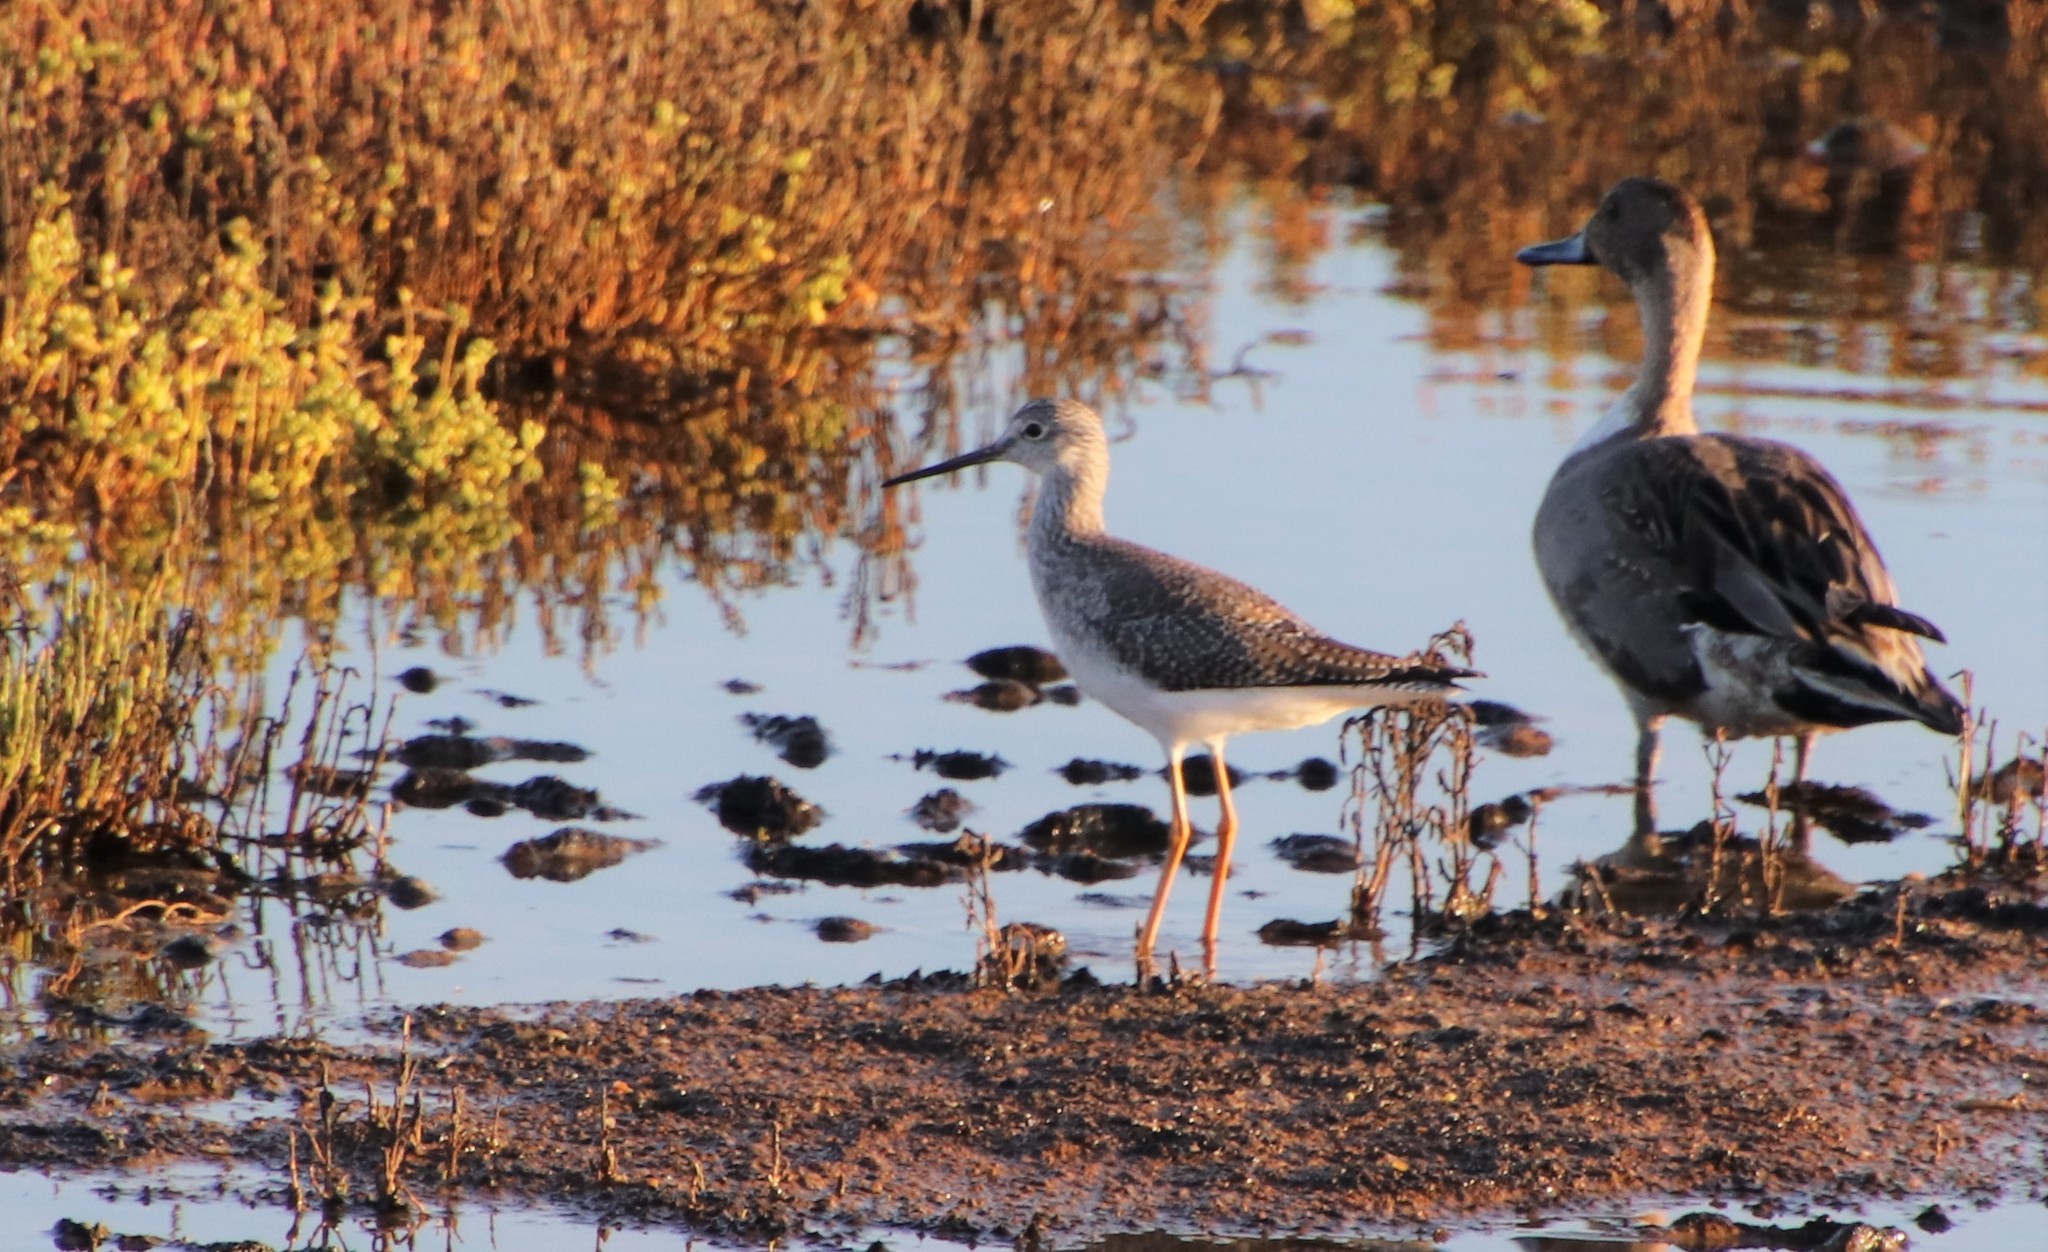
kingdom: Animalia
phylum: Chordata
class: Aves
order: Charadriiformes
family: Scolopacidae
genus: Tringa
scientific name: Tringa melanoleuca
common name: Greater yellowlegs
